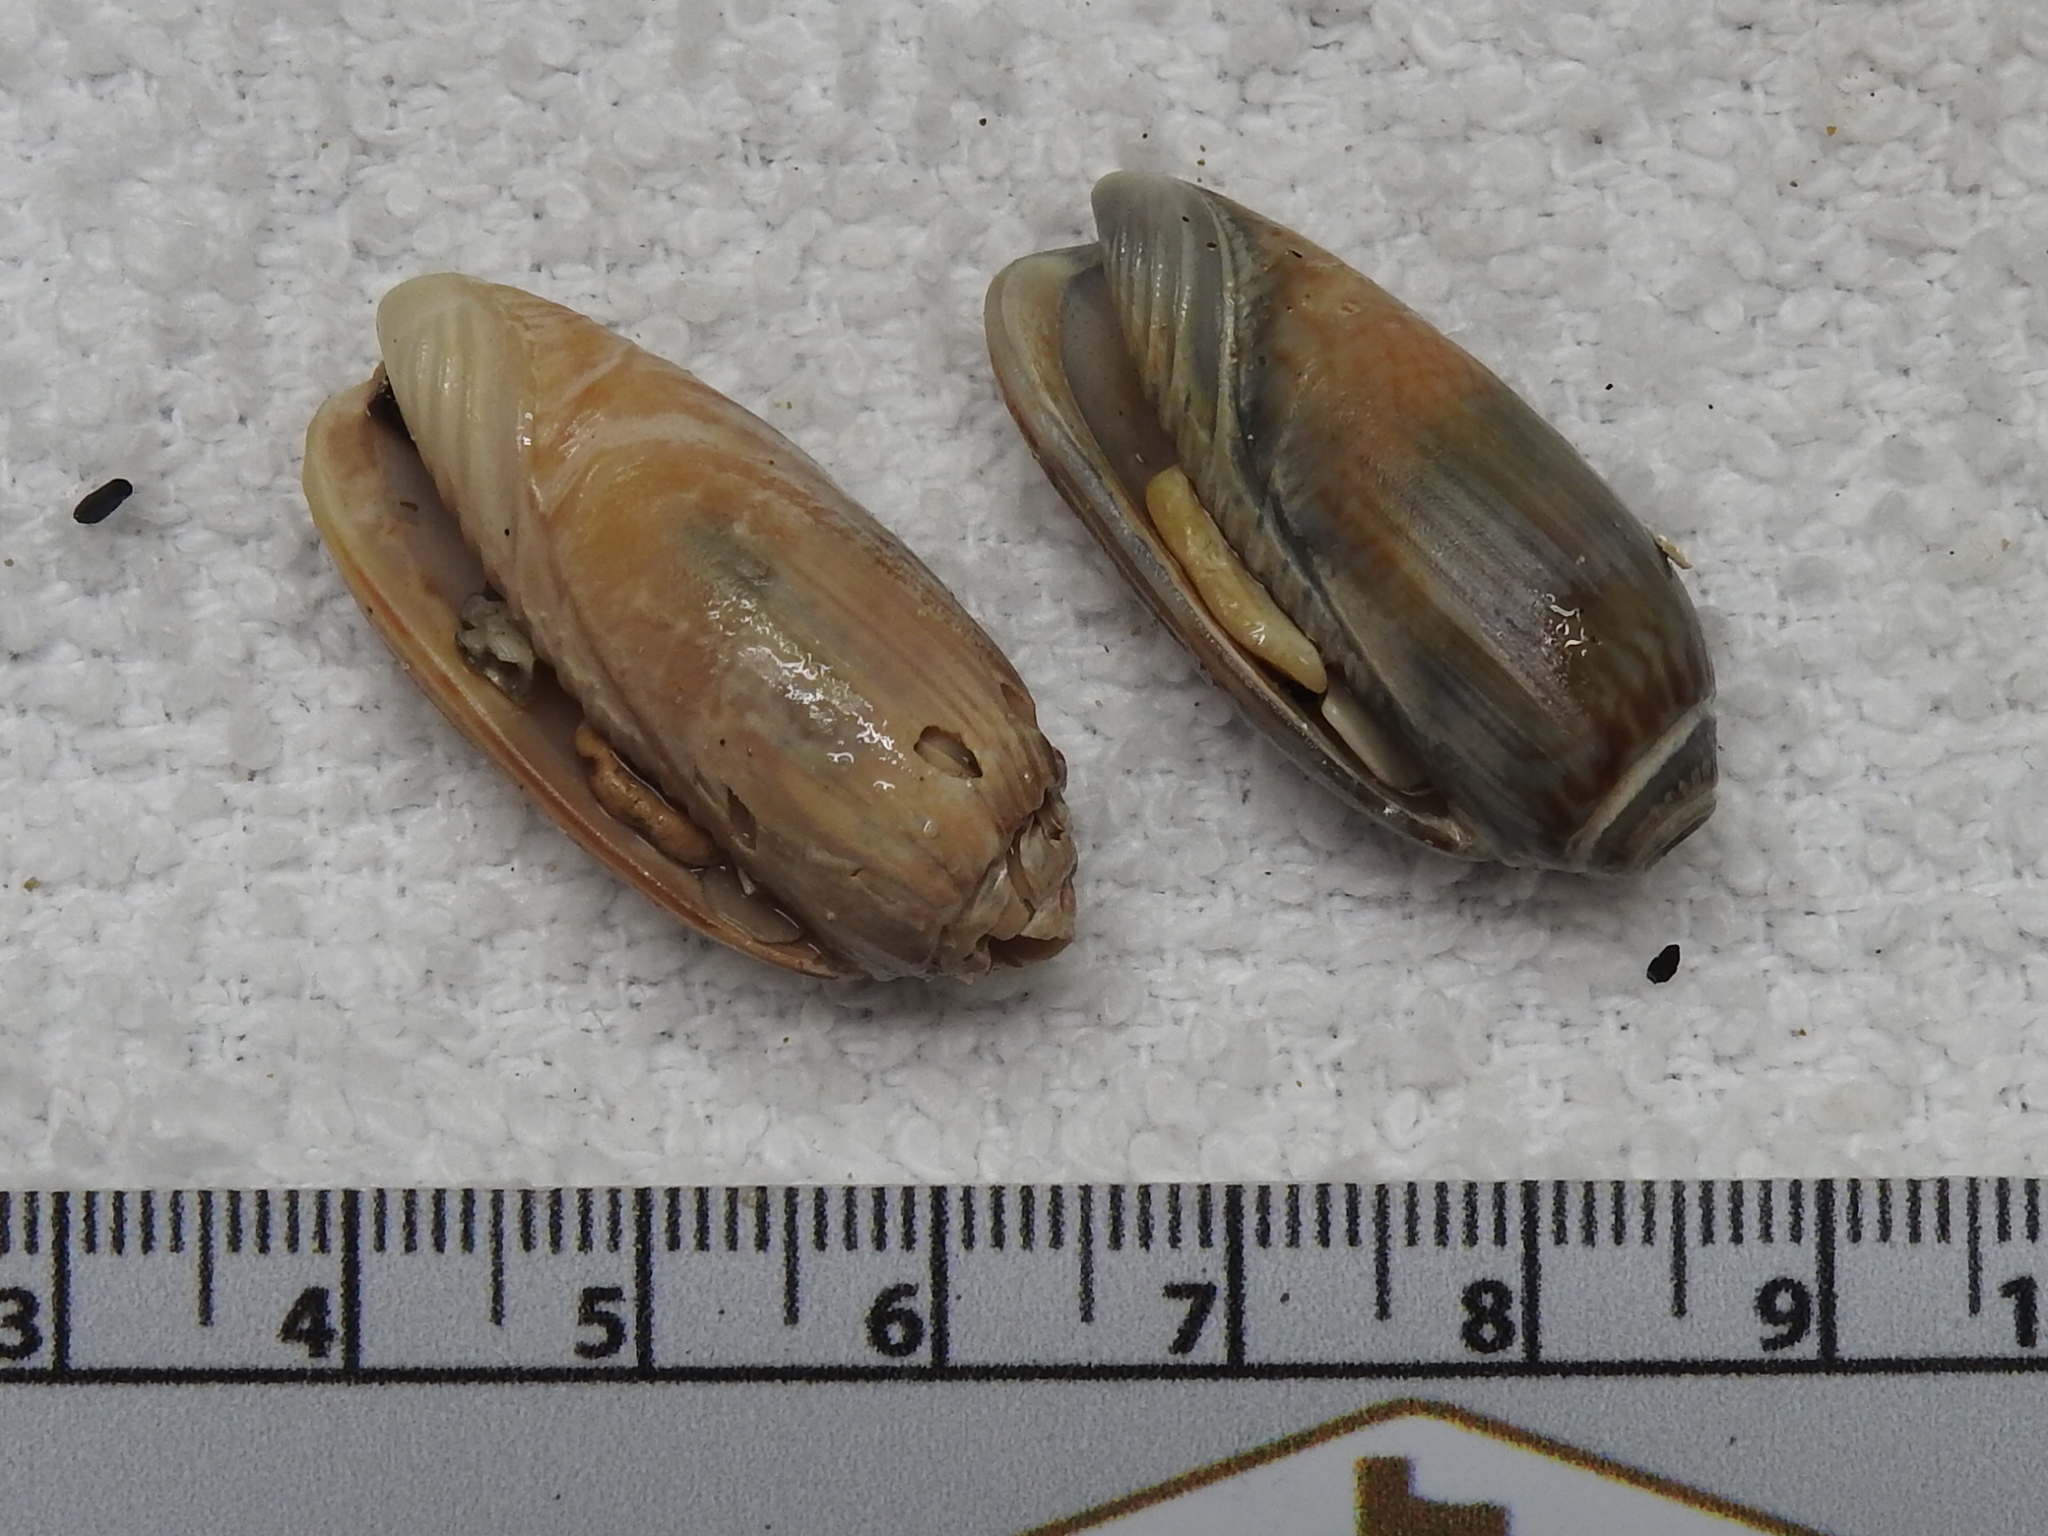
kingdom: Animalia
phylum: Mollusca
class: Gastropoda
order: Neogastropoda
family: Olividae
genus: Oliva
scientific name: Oliva sayana
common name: Lettered olive
